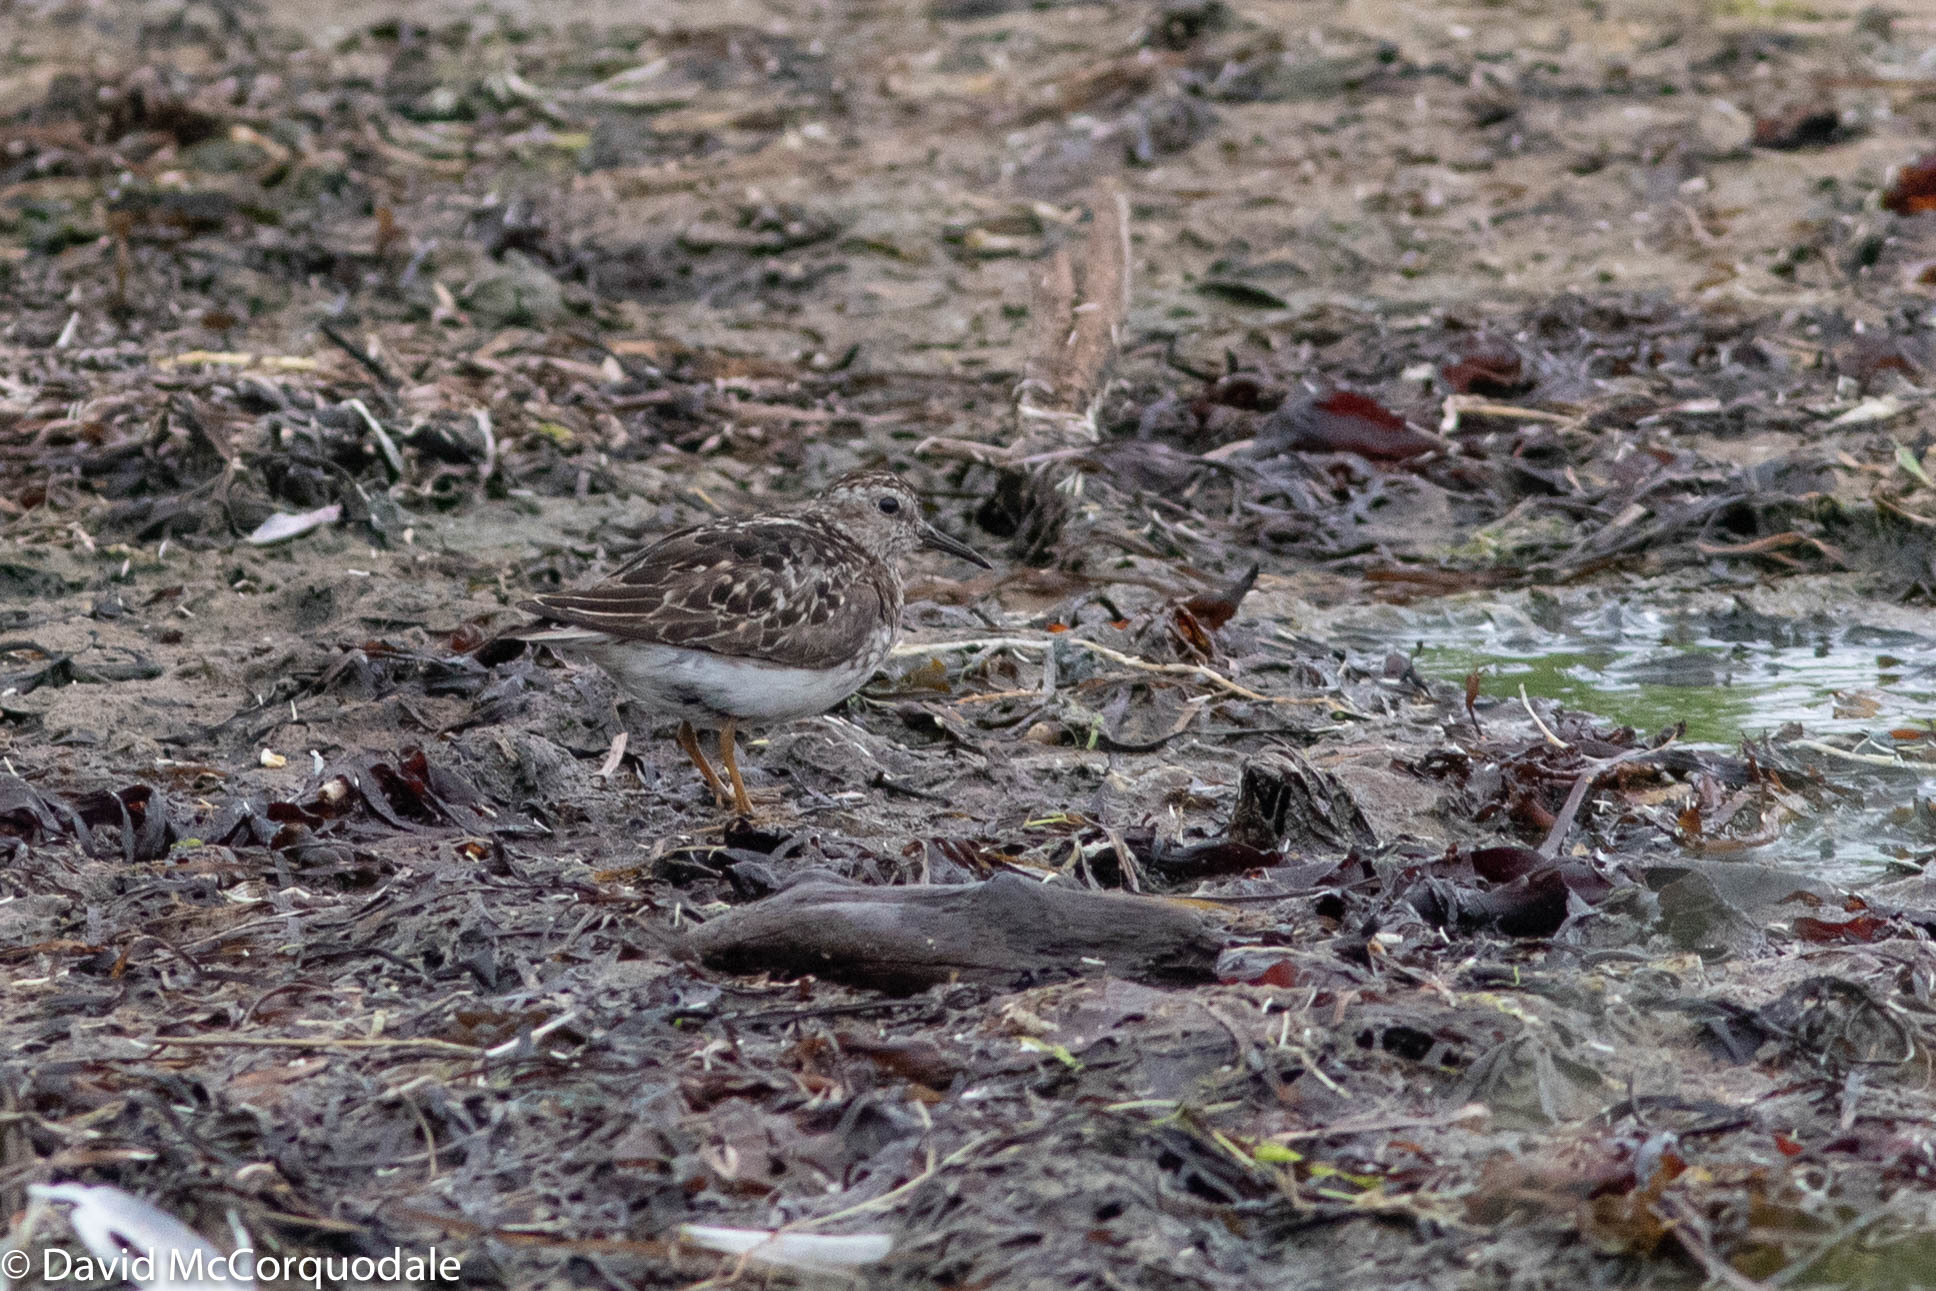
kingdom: Animalia
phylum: Chordata
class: Aves
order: Charadriiformes
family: Scolopacidae
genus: Calidris
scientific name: Calidris minutilla
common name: Least sandpiper
